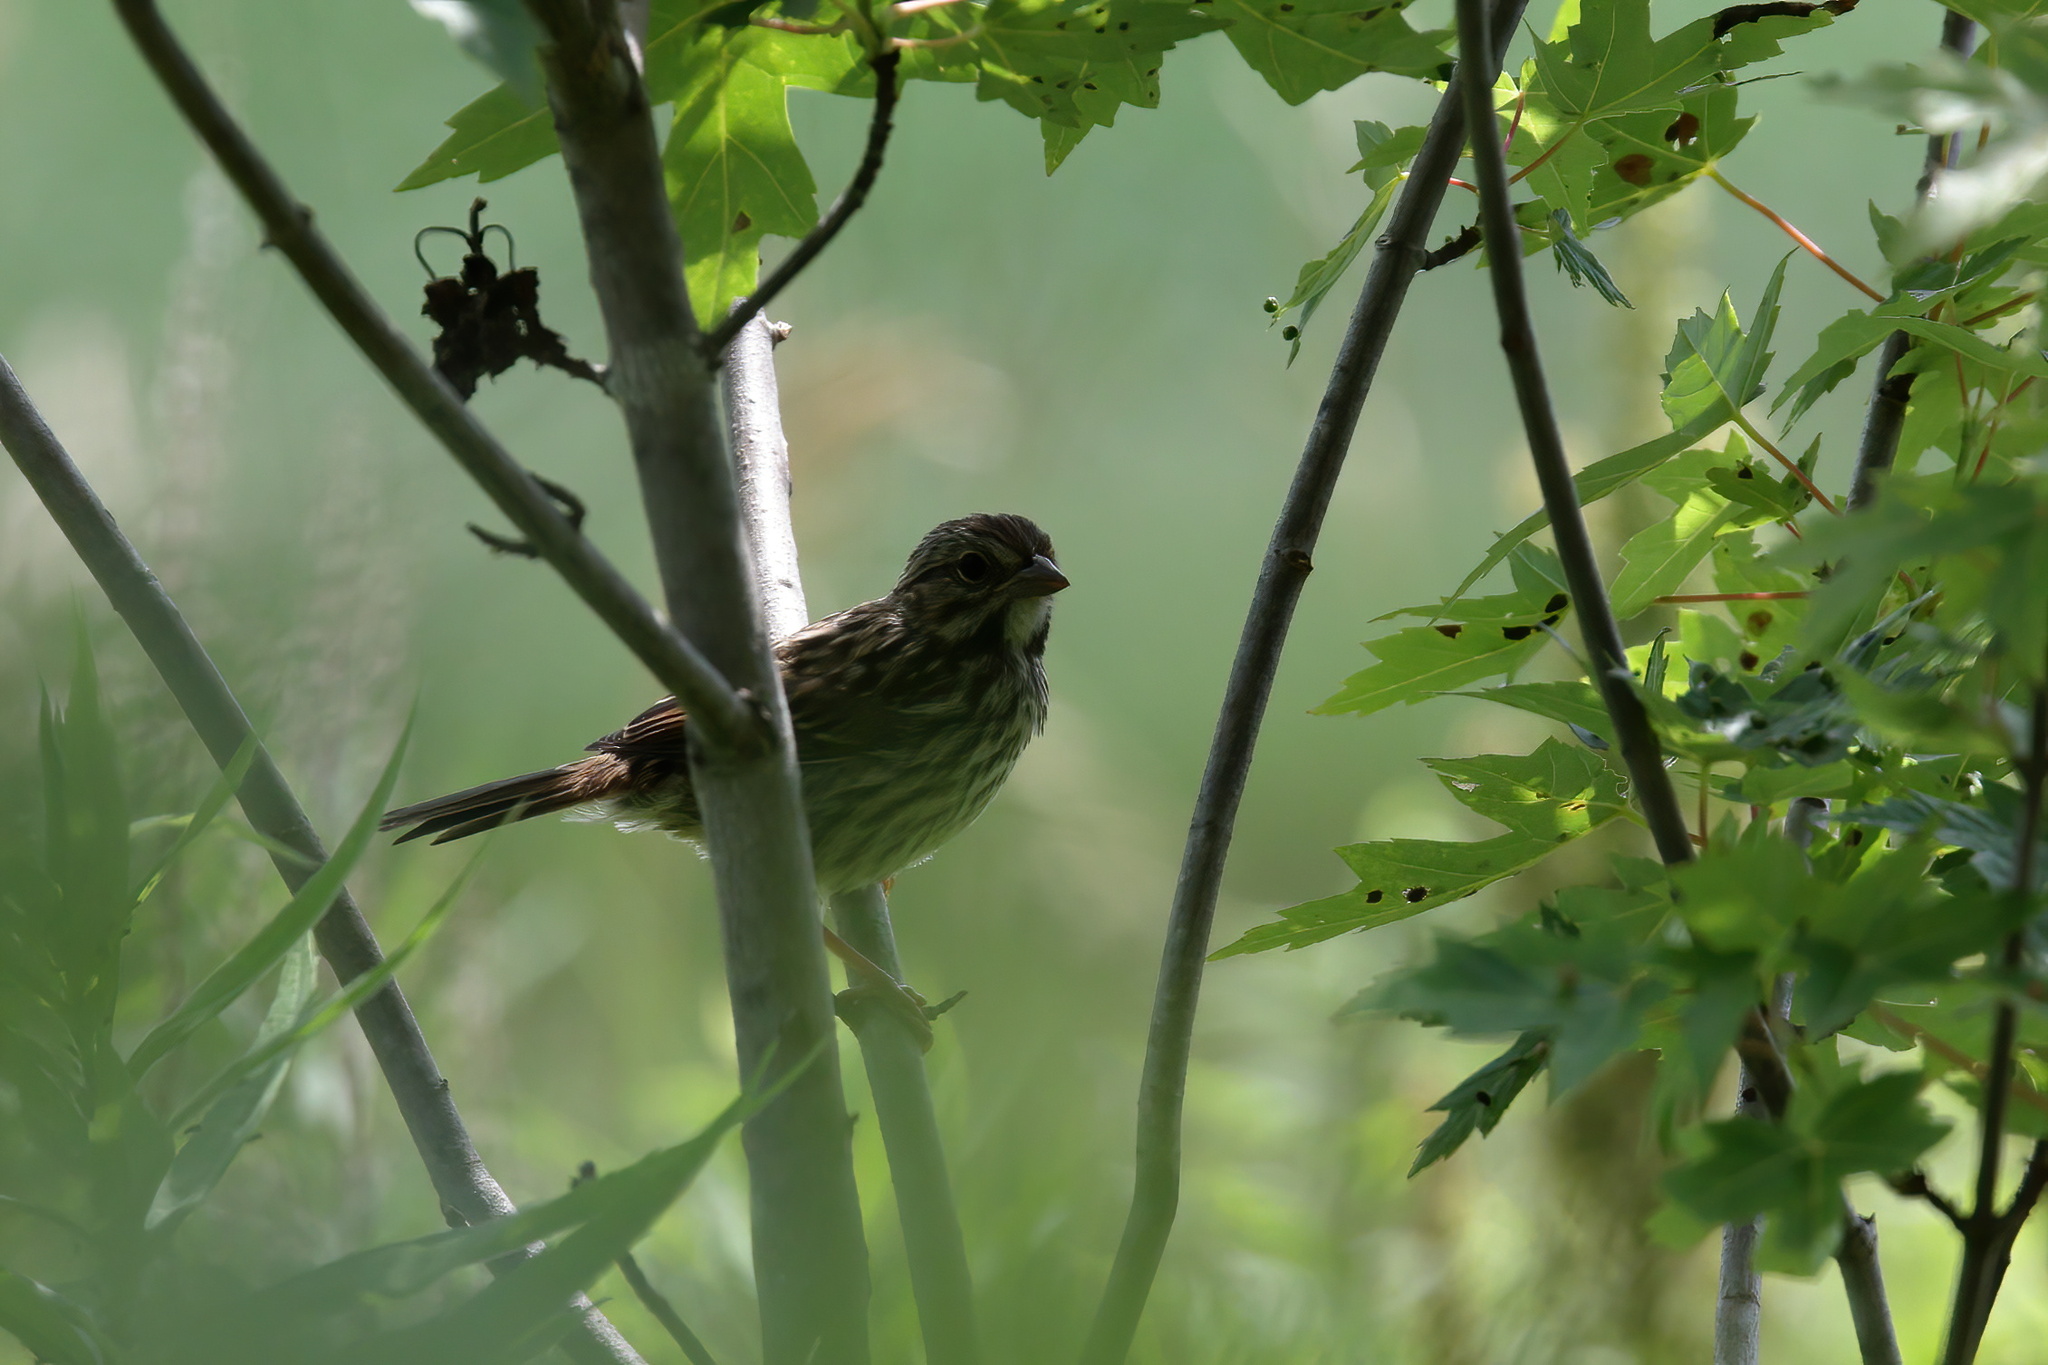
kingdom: Animalia
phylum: Chordata
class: Aves
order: Passeriformes
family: Passerellidae
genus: Melospiza
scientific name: Melospiza melodia
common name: Song sparrow
